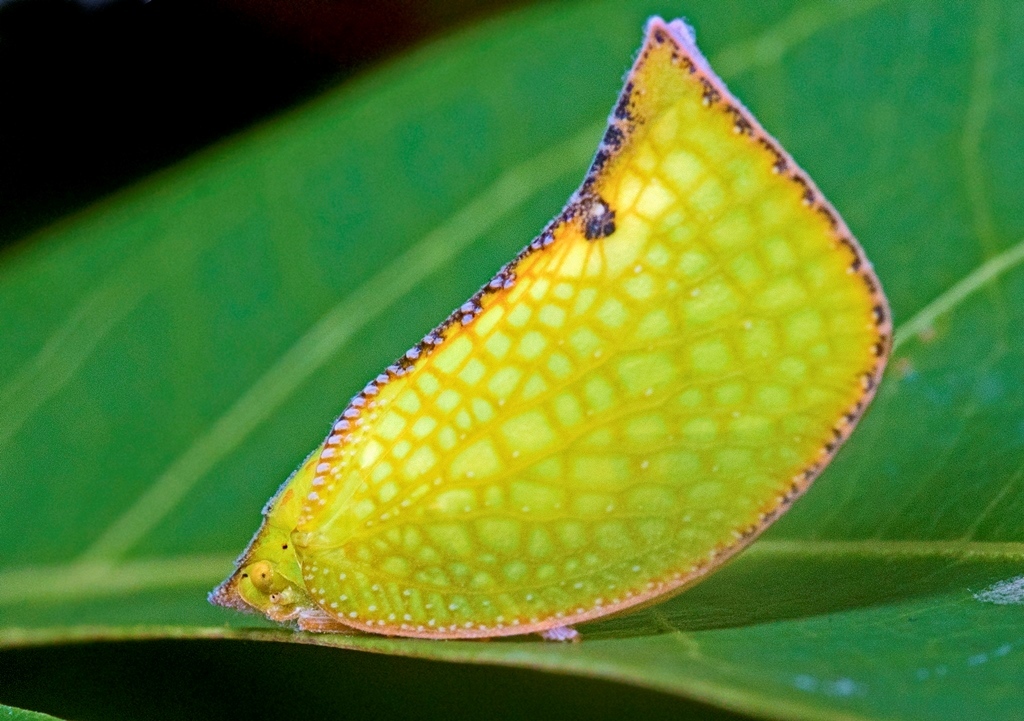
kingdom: Animalia
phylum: Arthropoda
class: Insecta
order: Hemiptera
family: Flatidae
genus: Salurnis
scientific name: Salurnis marginella
